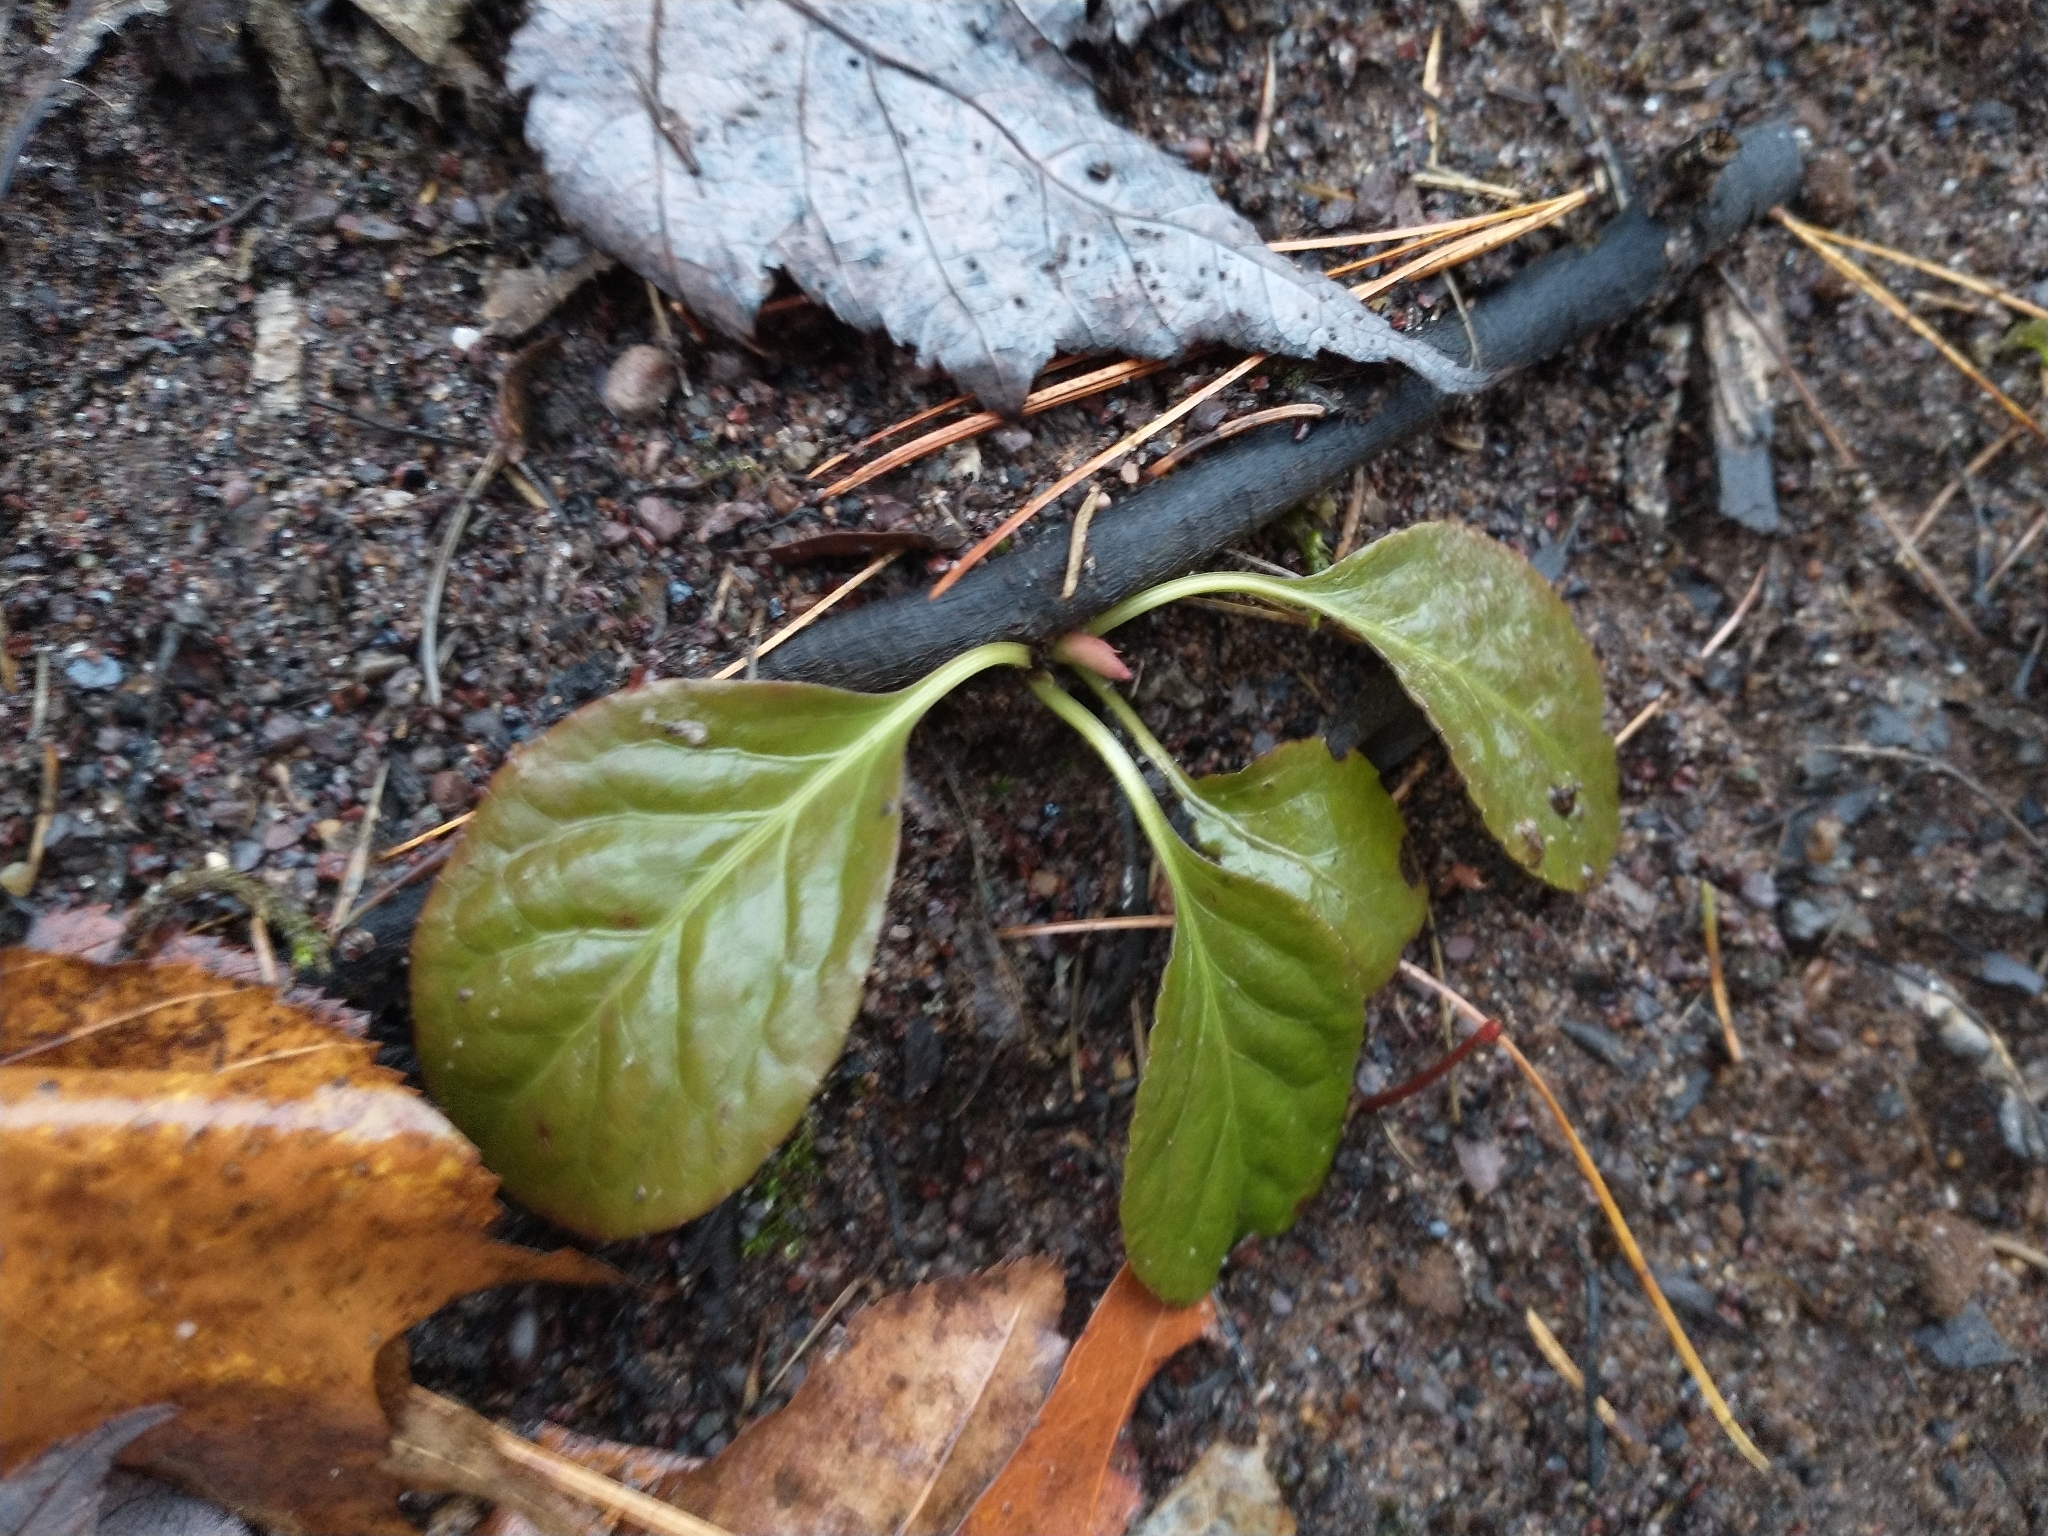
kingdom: Plantae
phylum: Tracheophyta
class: Magnoliopsida
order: Ericales
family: Ericaceae
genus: Pyrola
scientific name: Pyrola elliptica
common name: Shinleaf
